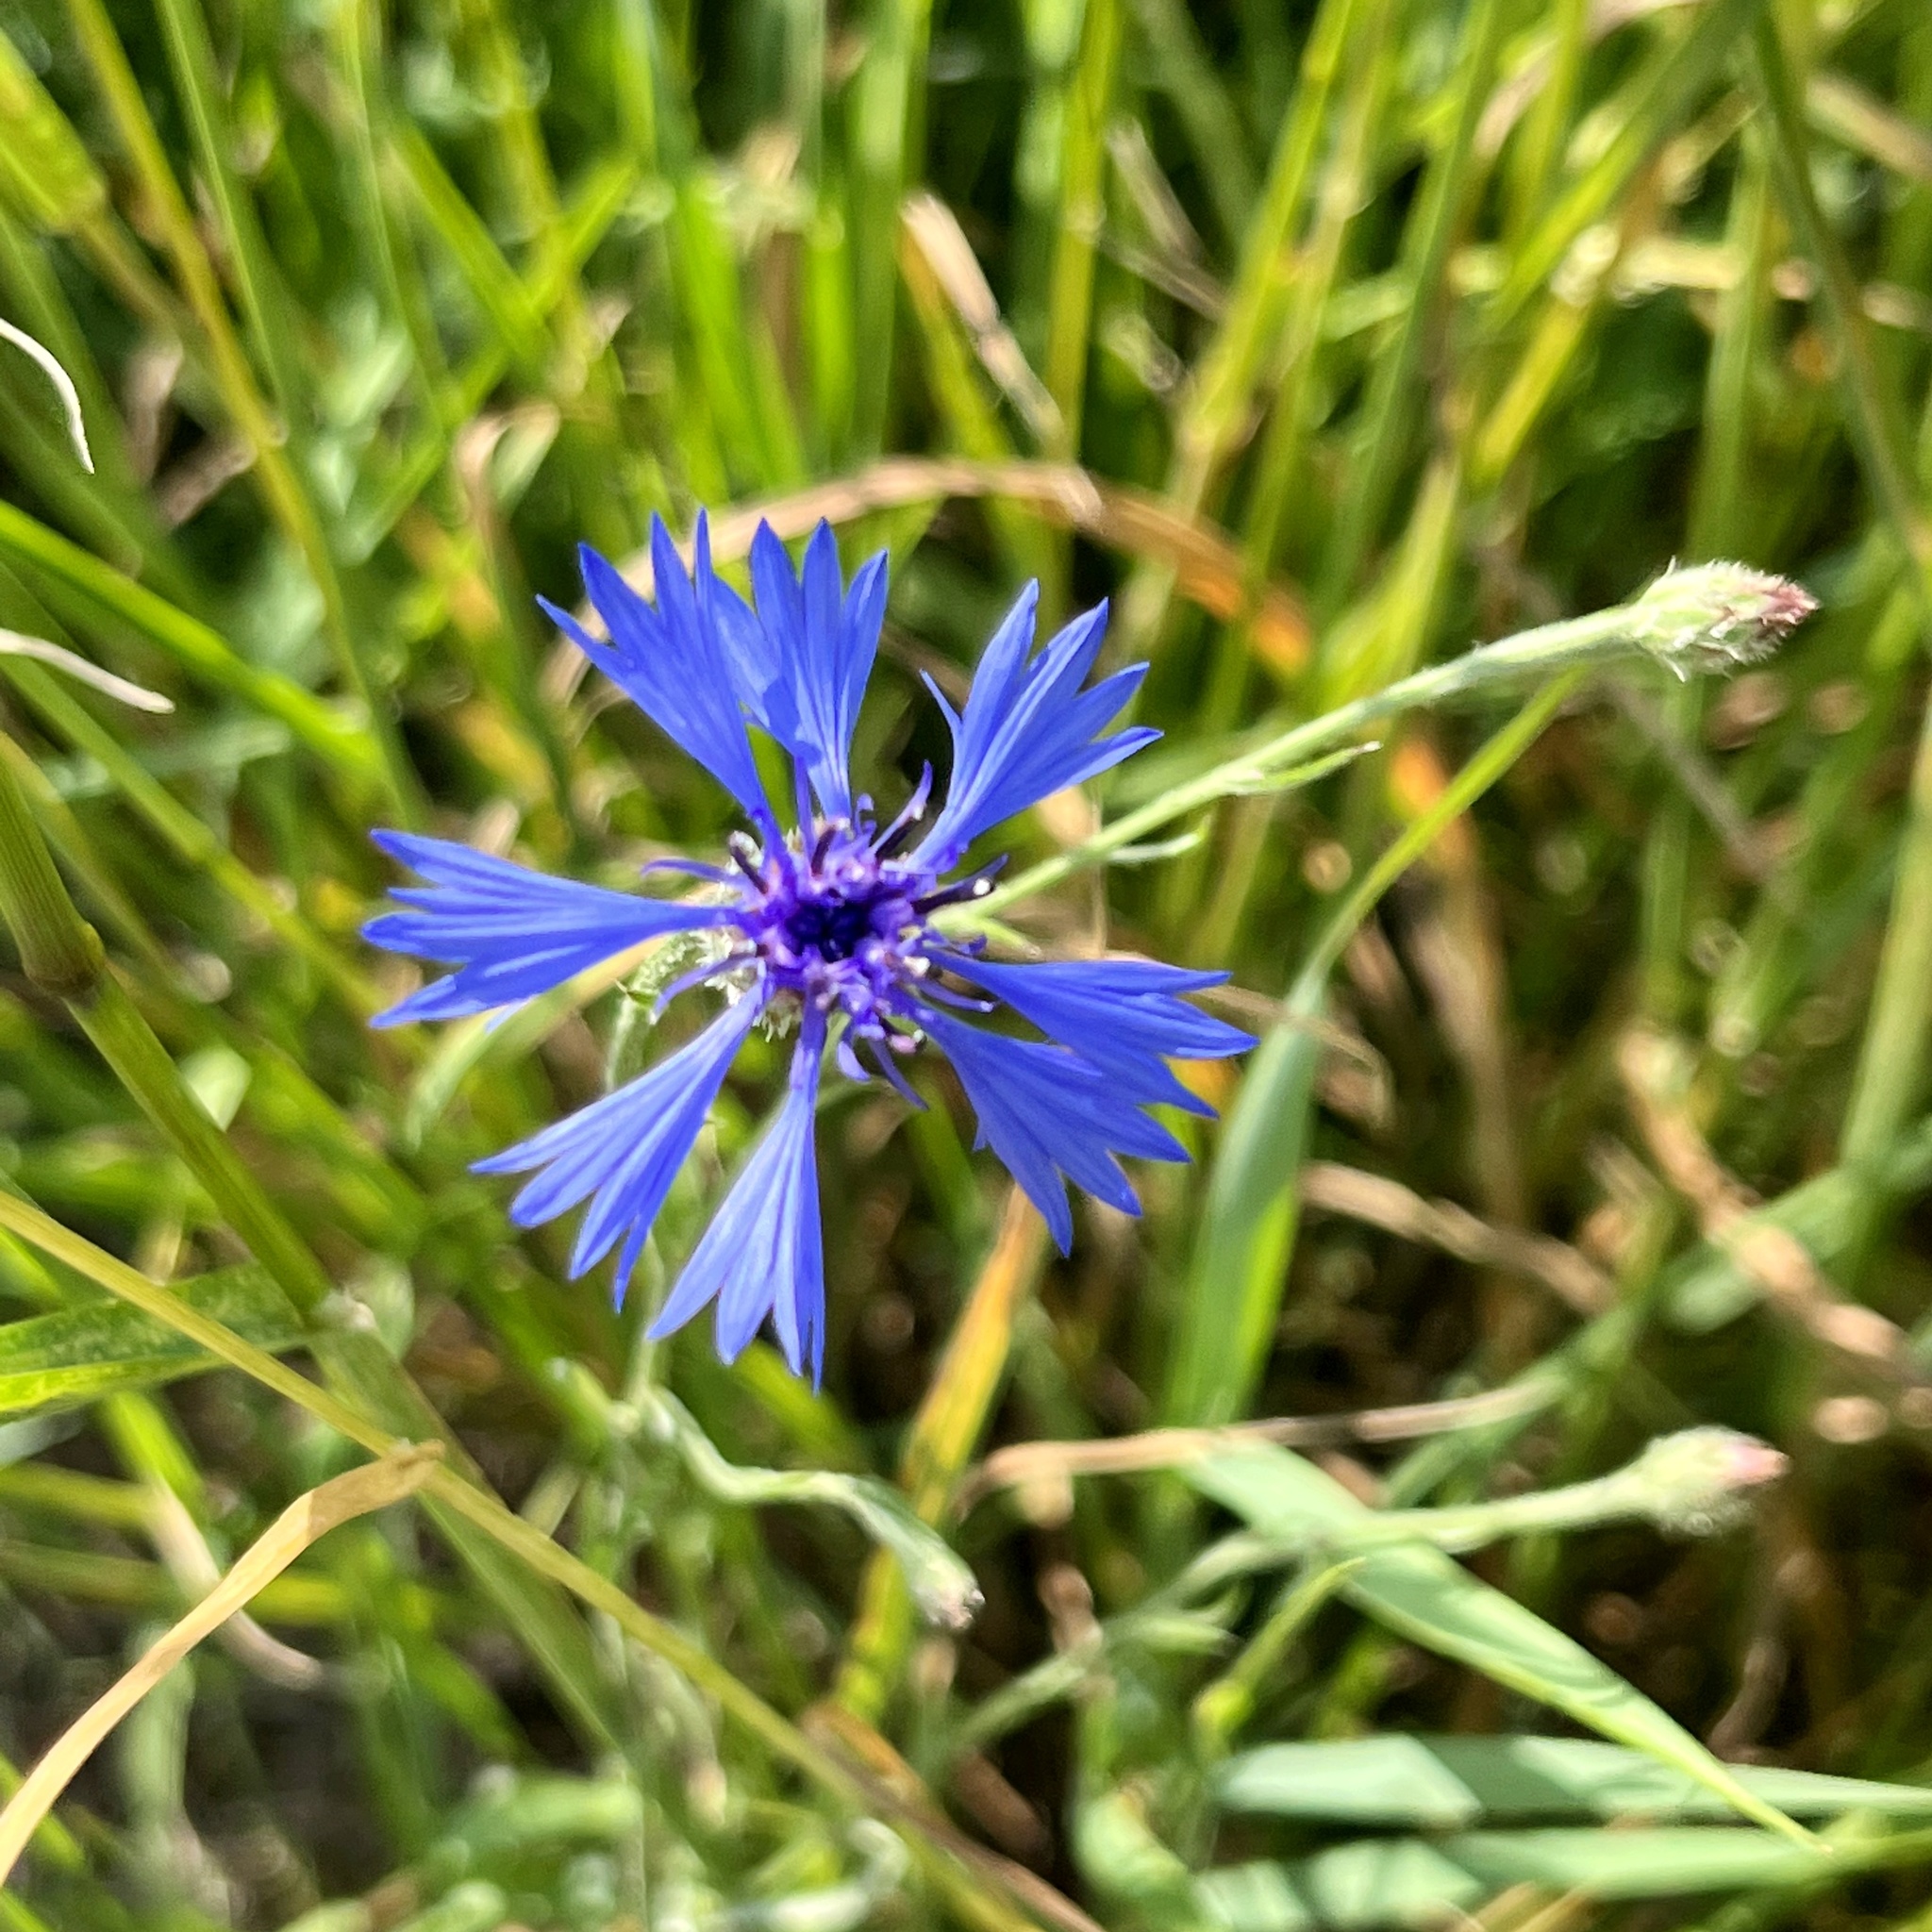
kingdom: Plantae
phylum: Tracheophyta
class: Magnoliopsida
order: Asterales
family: Asteraceae
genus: Centaurea
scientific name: Centaurea cyanus
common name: Cornflower
